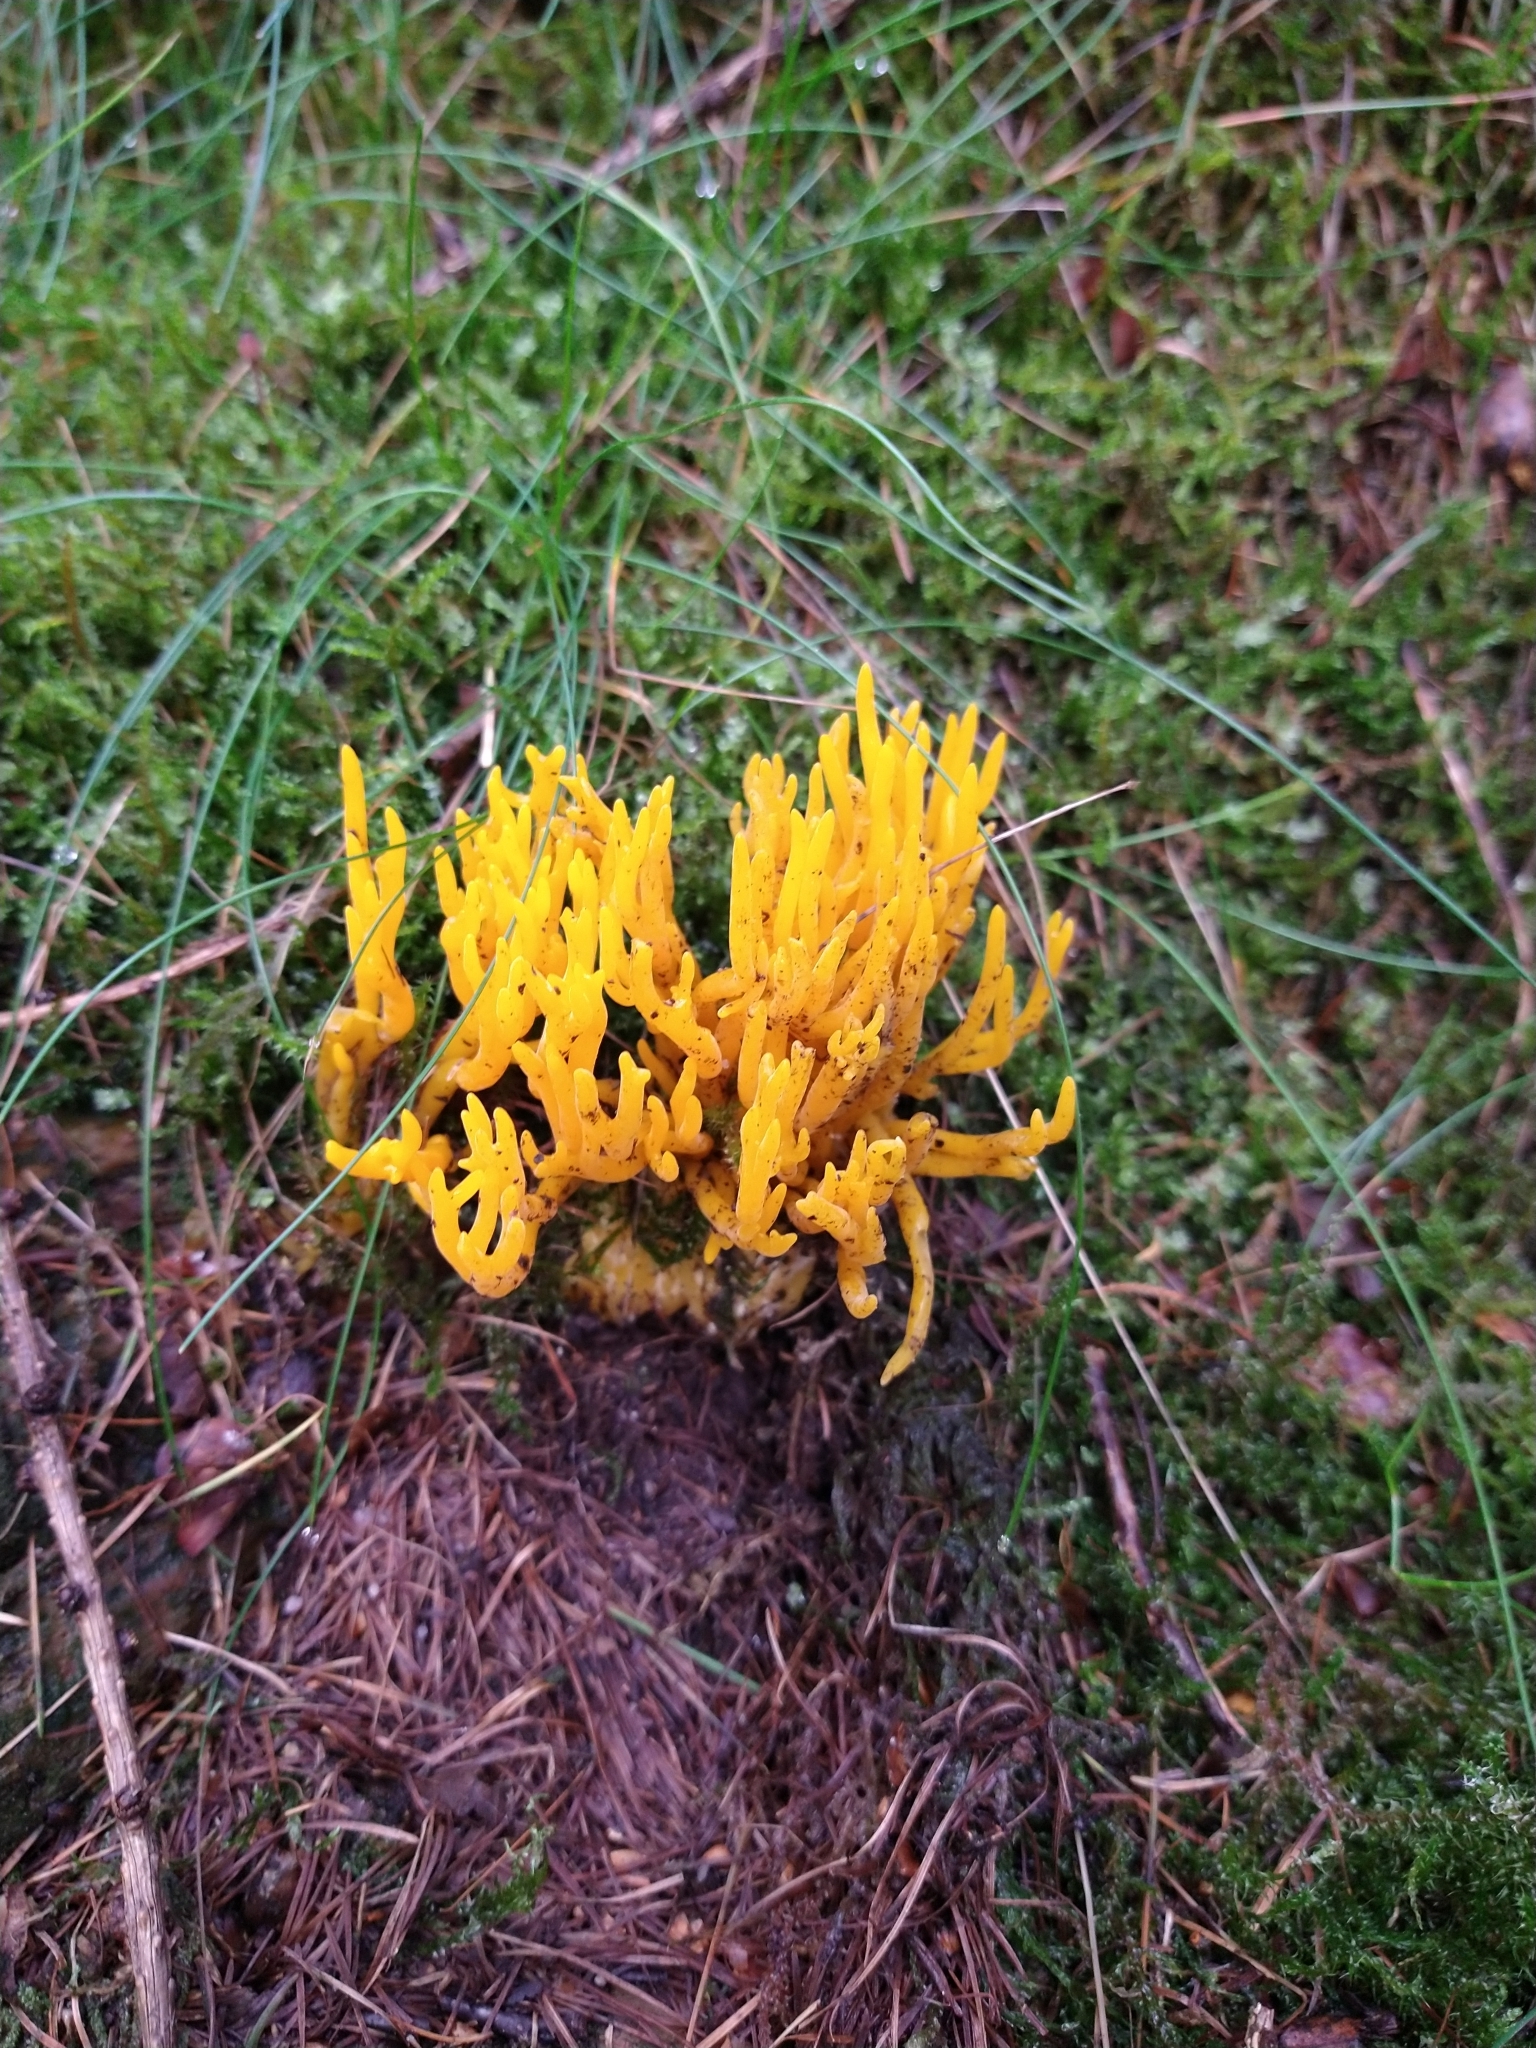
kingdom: Fungi
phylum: Basidiomycota
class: Dacrymycetes
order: Dacrymycetales
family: Dacrymycetaceae
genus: Calocera
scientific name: Calocera viscosa
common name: Yellow stagshorn
